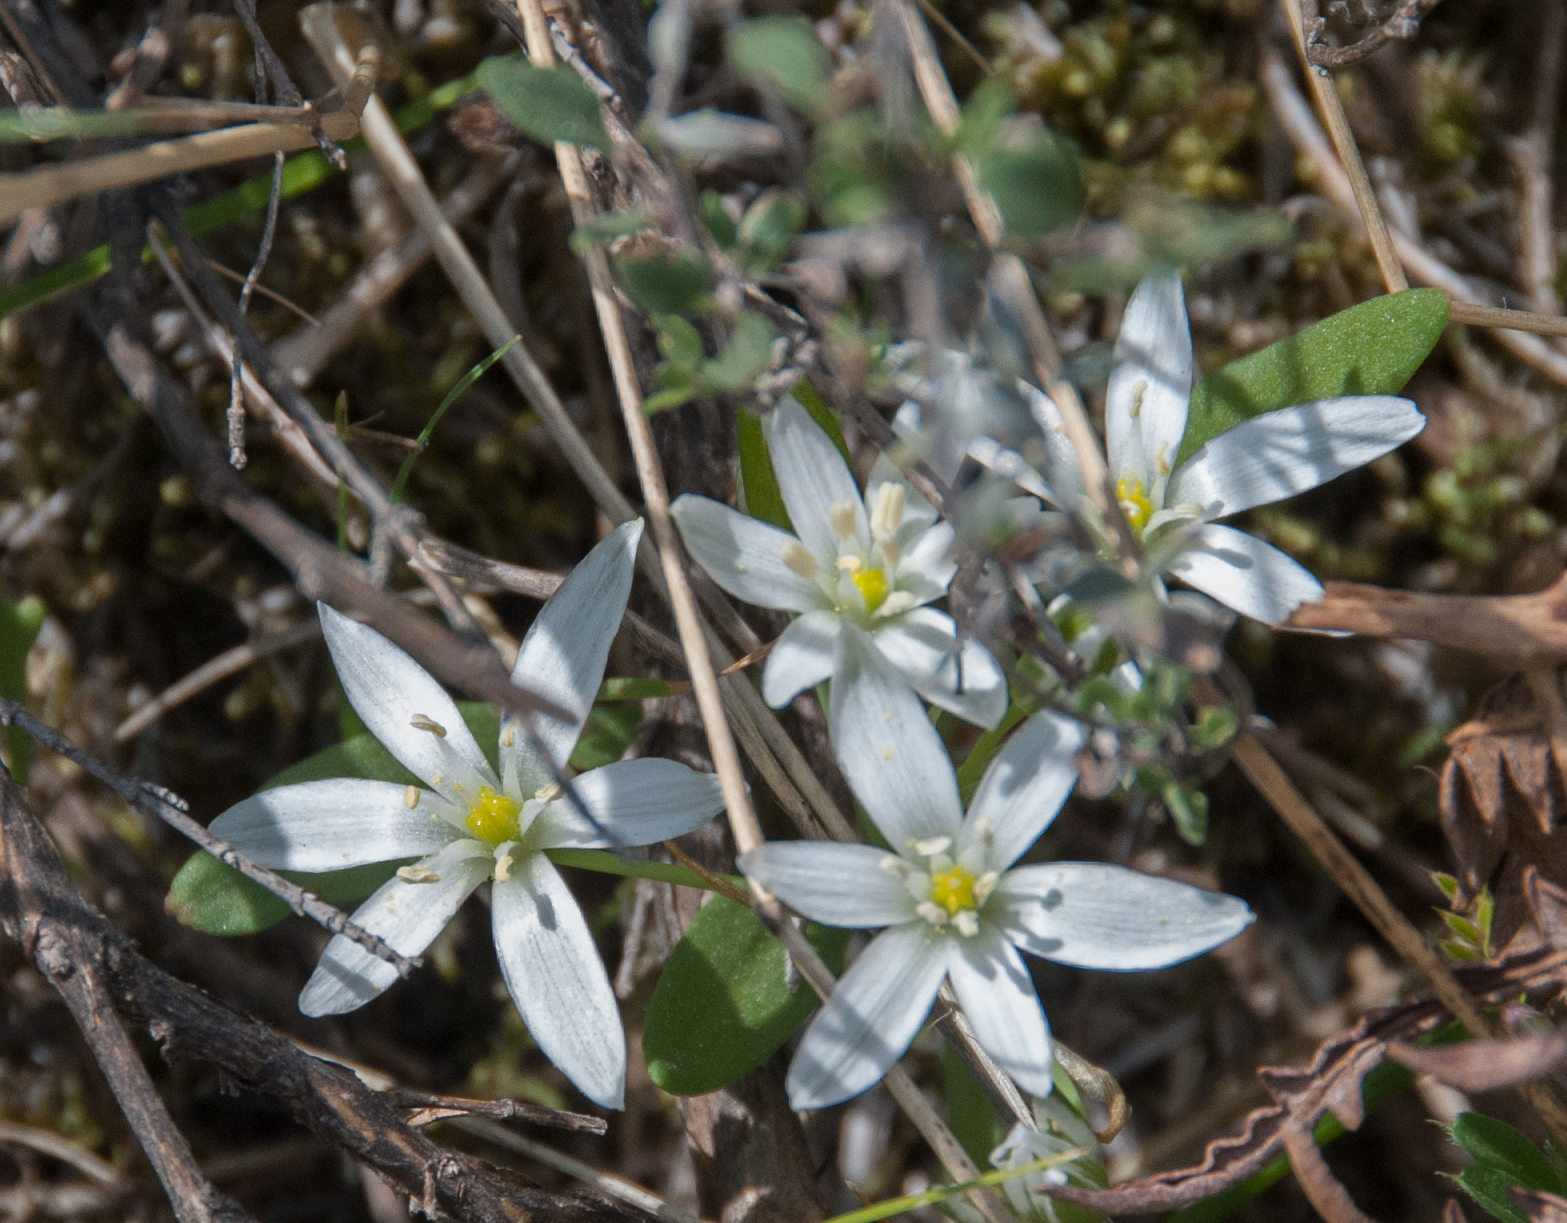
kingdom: Plantae
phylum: Tracheophyta
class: Liliopsida
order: Asparagales
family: Asparagaceae
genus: Ornithogalum
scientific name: Ornithogalum umbellatum
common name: Garden star-of-bethlehem
